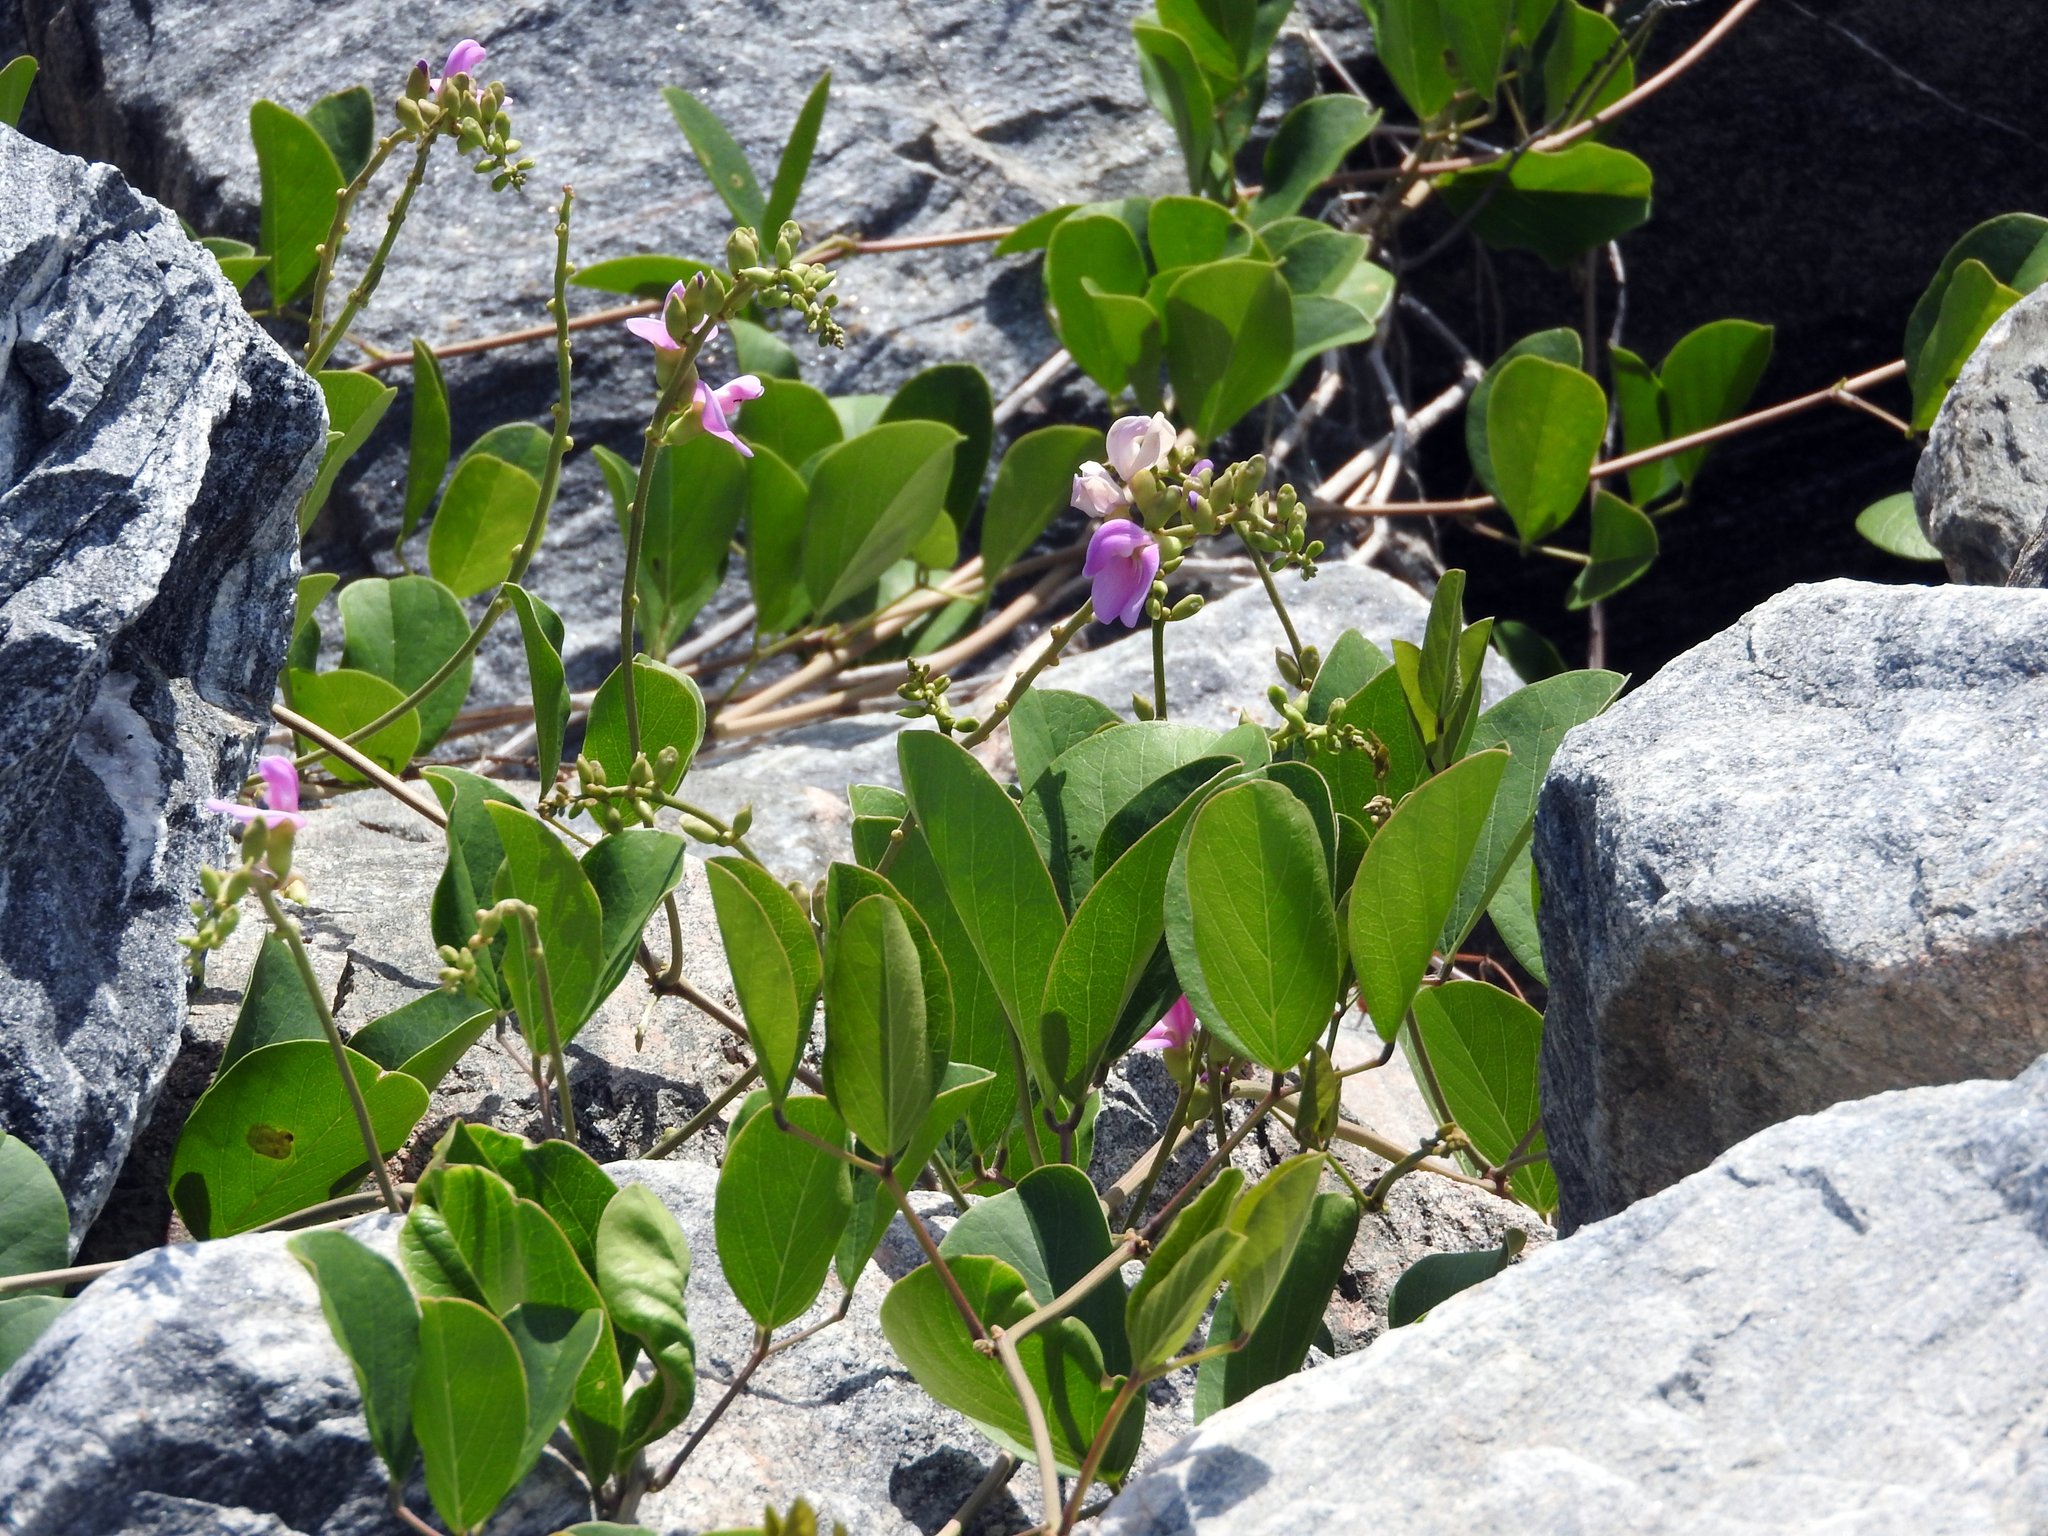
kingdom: Plantae
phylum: Tracheophyta
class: Magnoliopsida
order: Fabales
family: Fabaceae
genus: Canavalia
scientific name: Canavalia rosea
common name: Beach-bean
